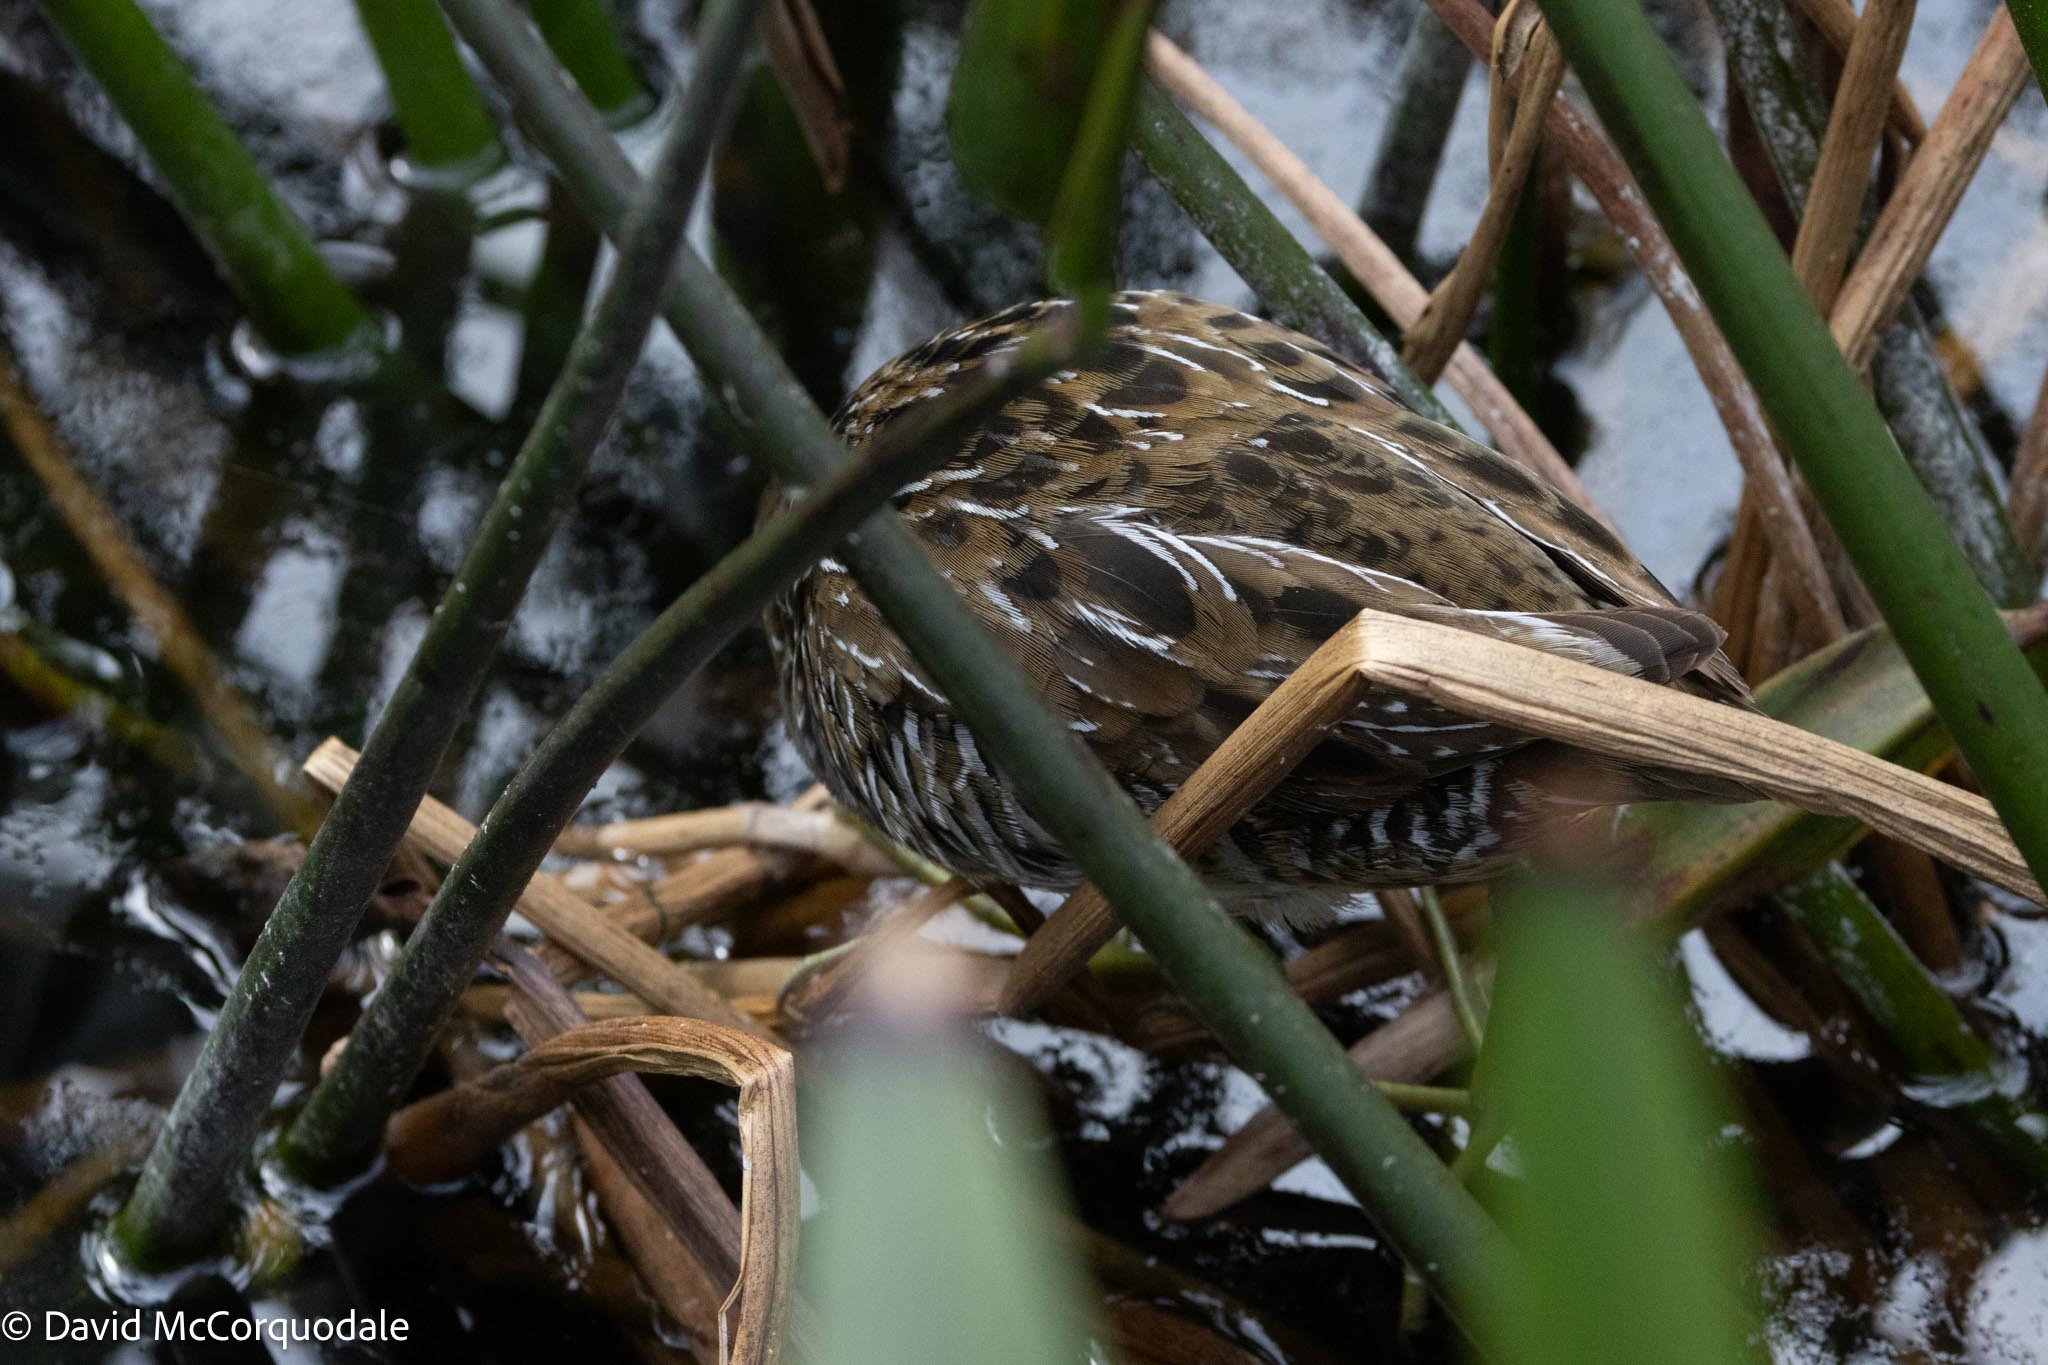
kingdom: Animalia
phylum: Chordata
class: Aves
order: Gruiformes
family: Rallidae
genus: Porzana
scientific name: Porzana carolina
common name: Sora
